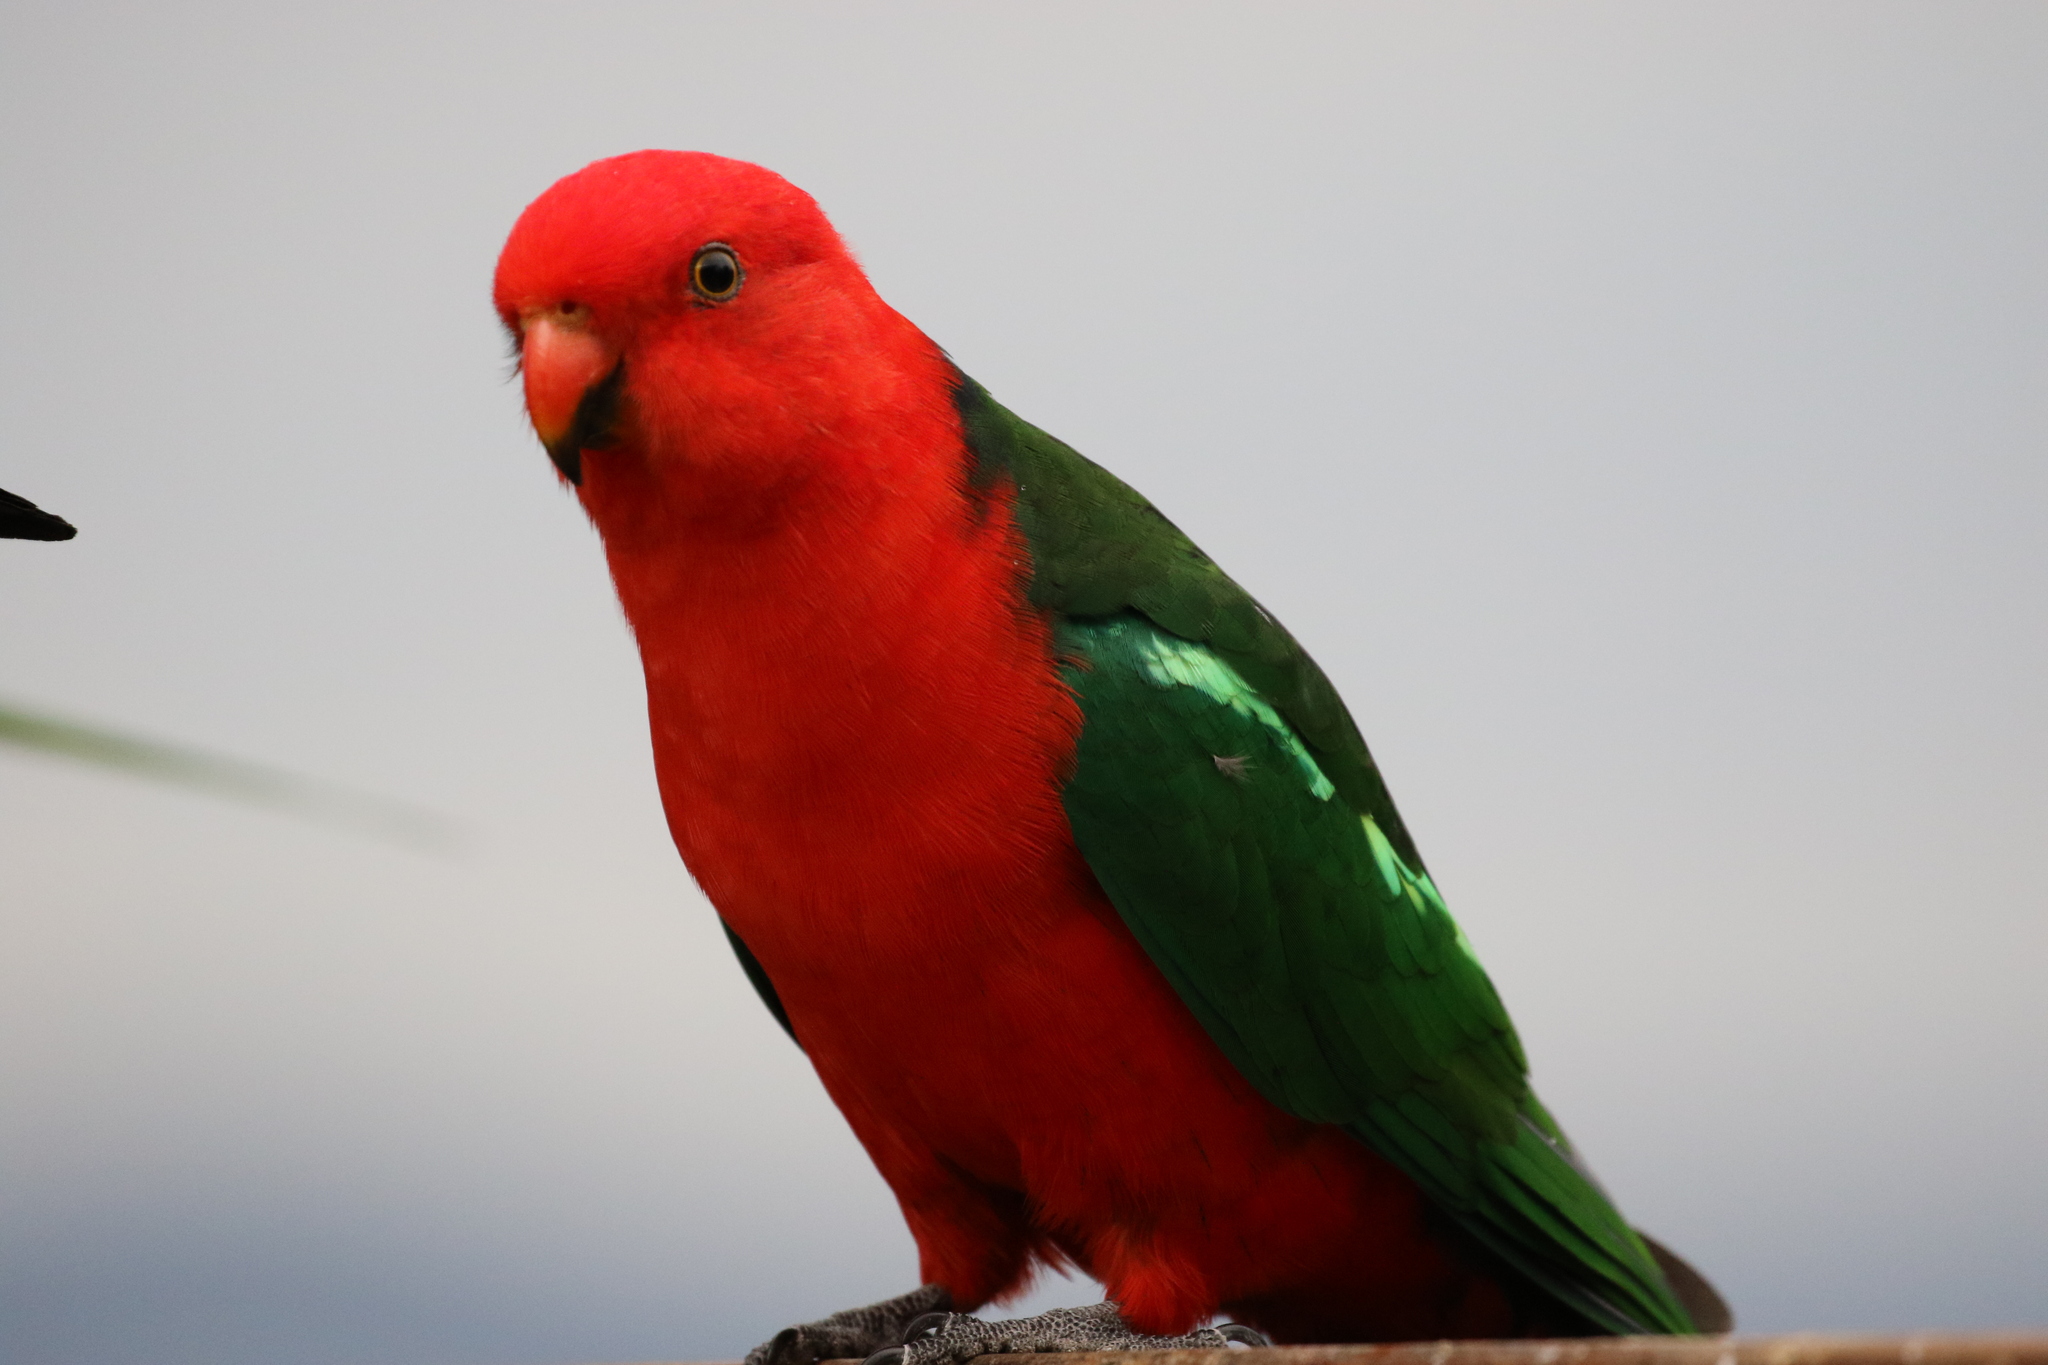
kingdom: Animalia
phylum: Chordata
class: Aves
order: Psittaciformes
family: Psittacidae
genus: Alisterus
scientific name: Alisterus scapularis
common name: Australian king parrot
